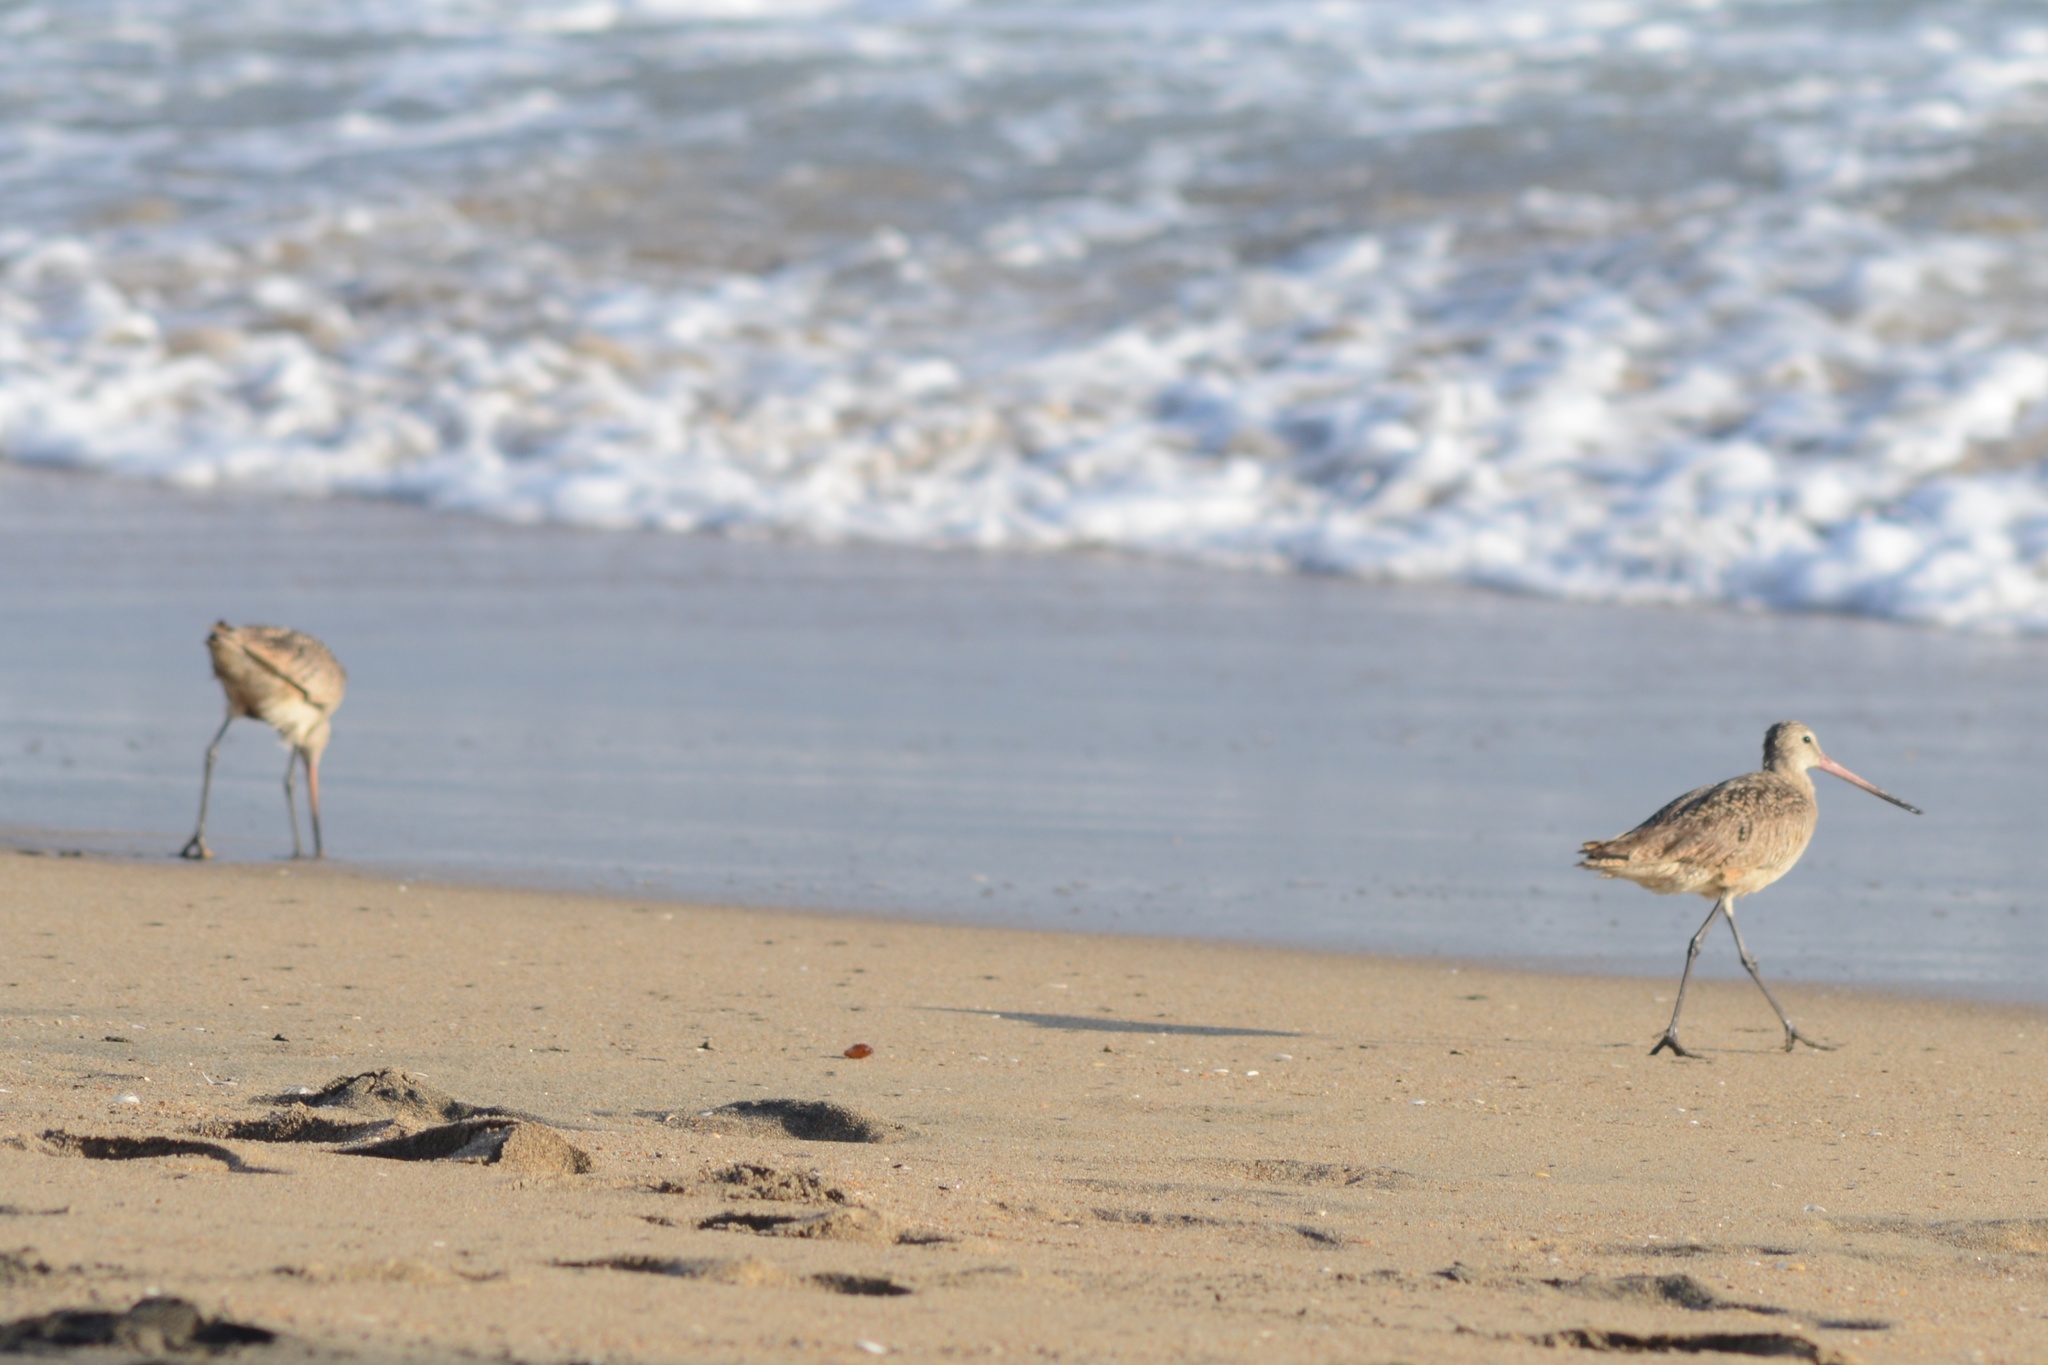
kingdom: Animalia
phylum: Chordata
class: Aves
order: Charadriiformes
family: Scolopacidae
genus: Limosa
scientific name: Limosa fedoa
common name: Marbled godwit
